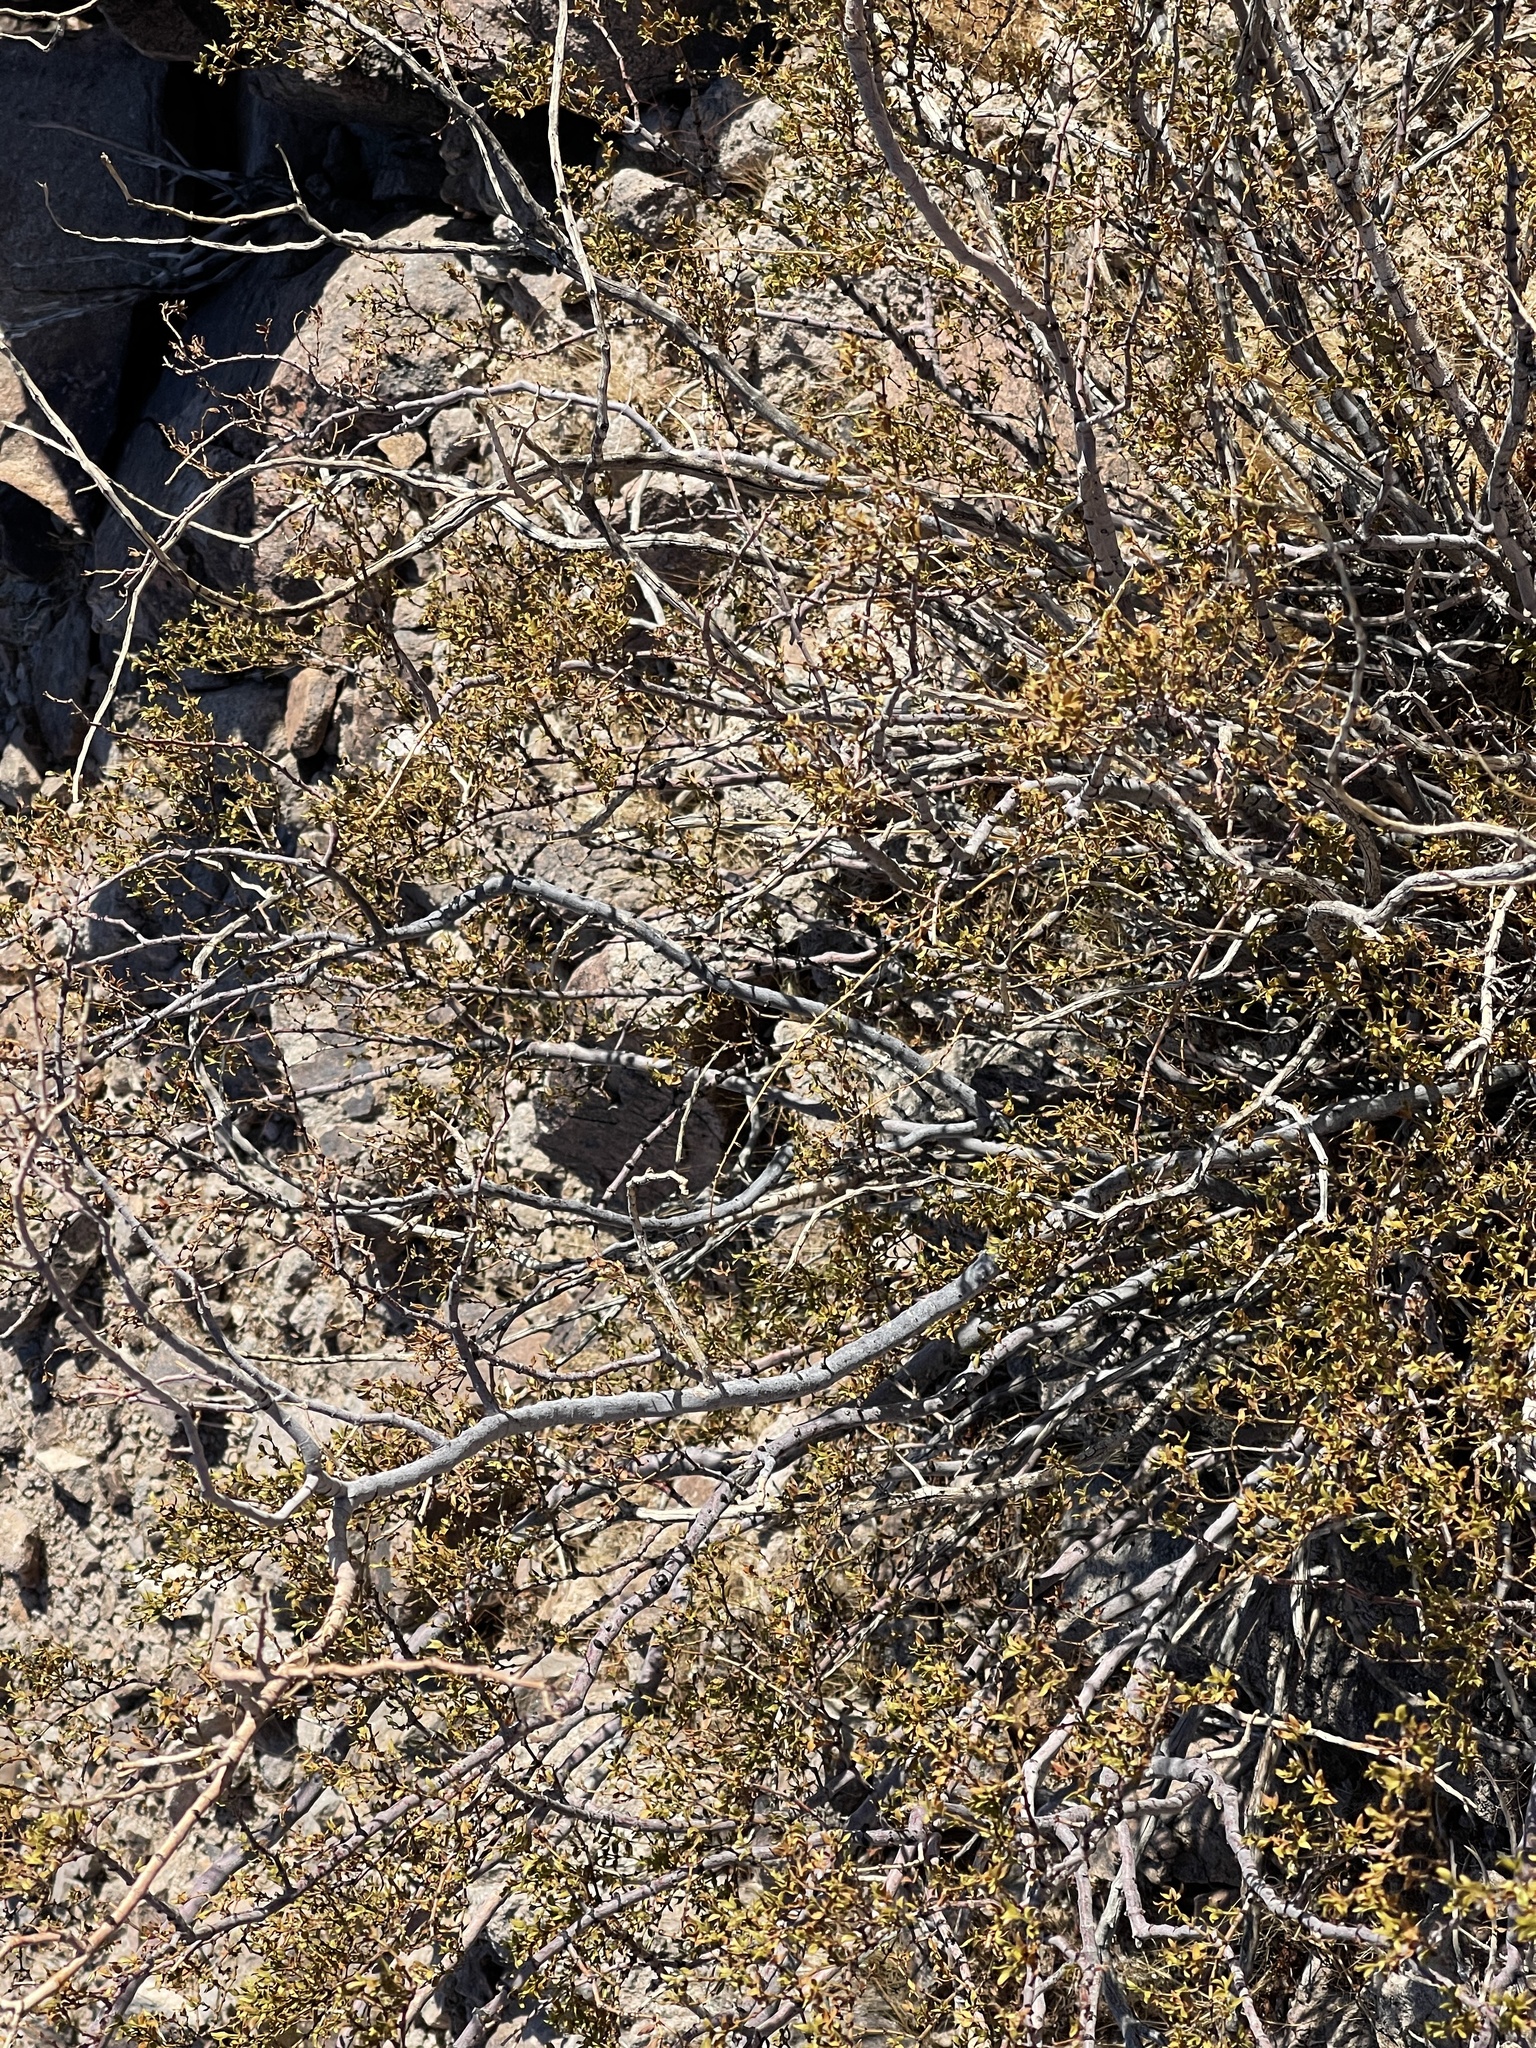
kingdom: Plantae
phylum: Tracheophyta
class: Magnoliopsida
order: Zygophyllales
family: Zygophyllaceae
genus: Larrea
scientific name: Larrea tridentata
